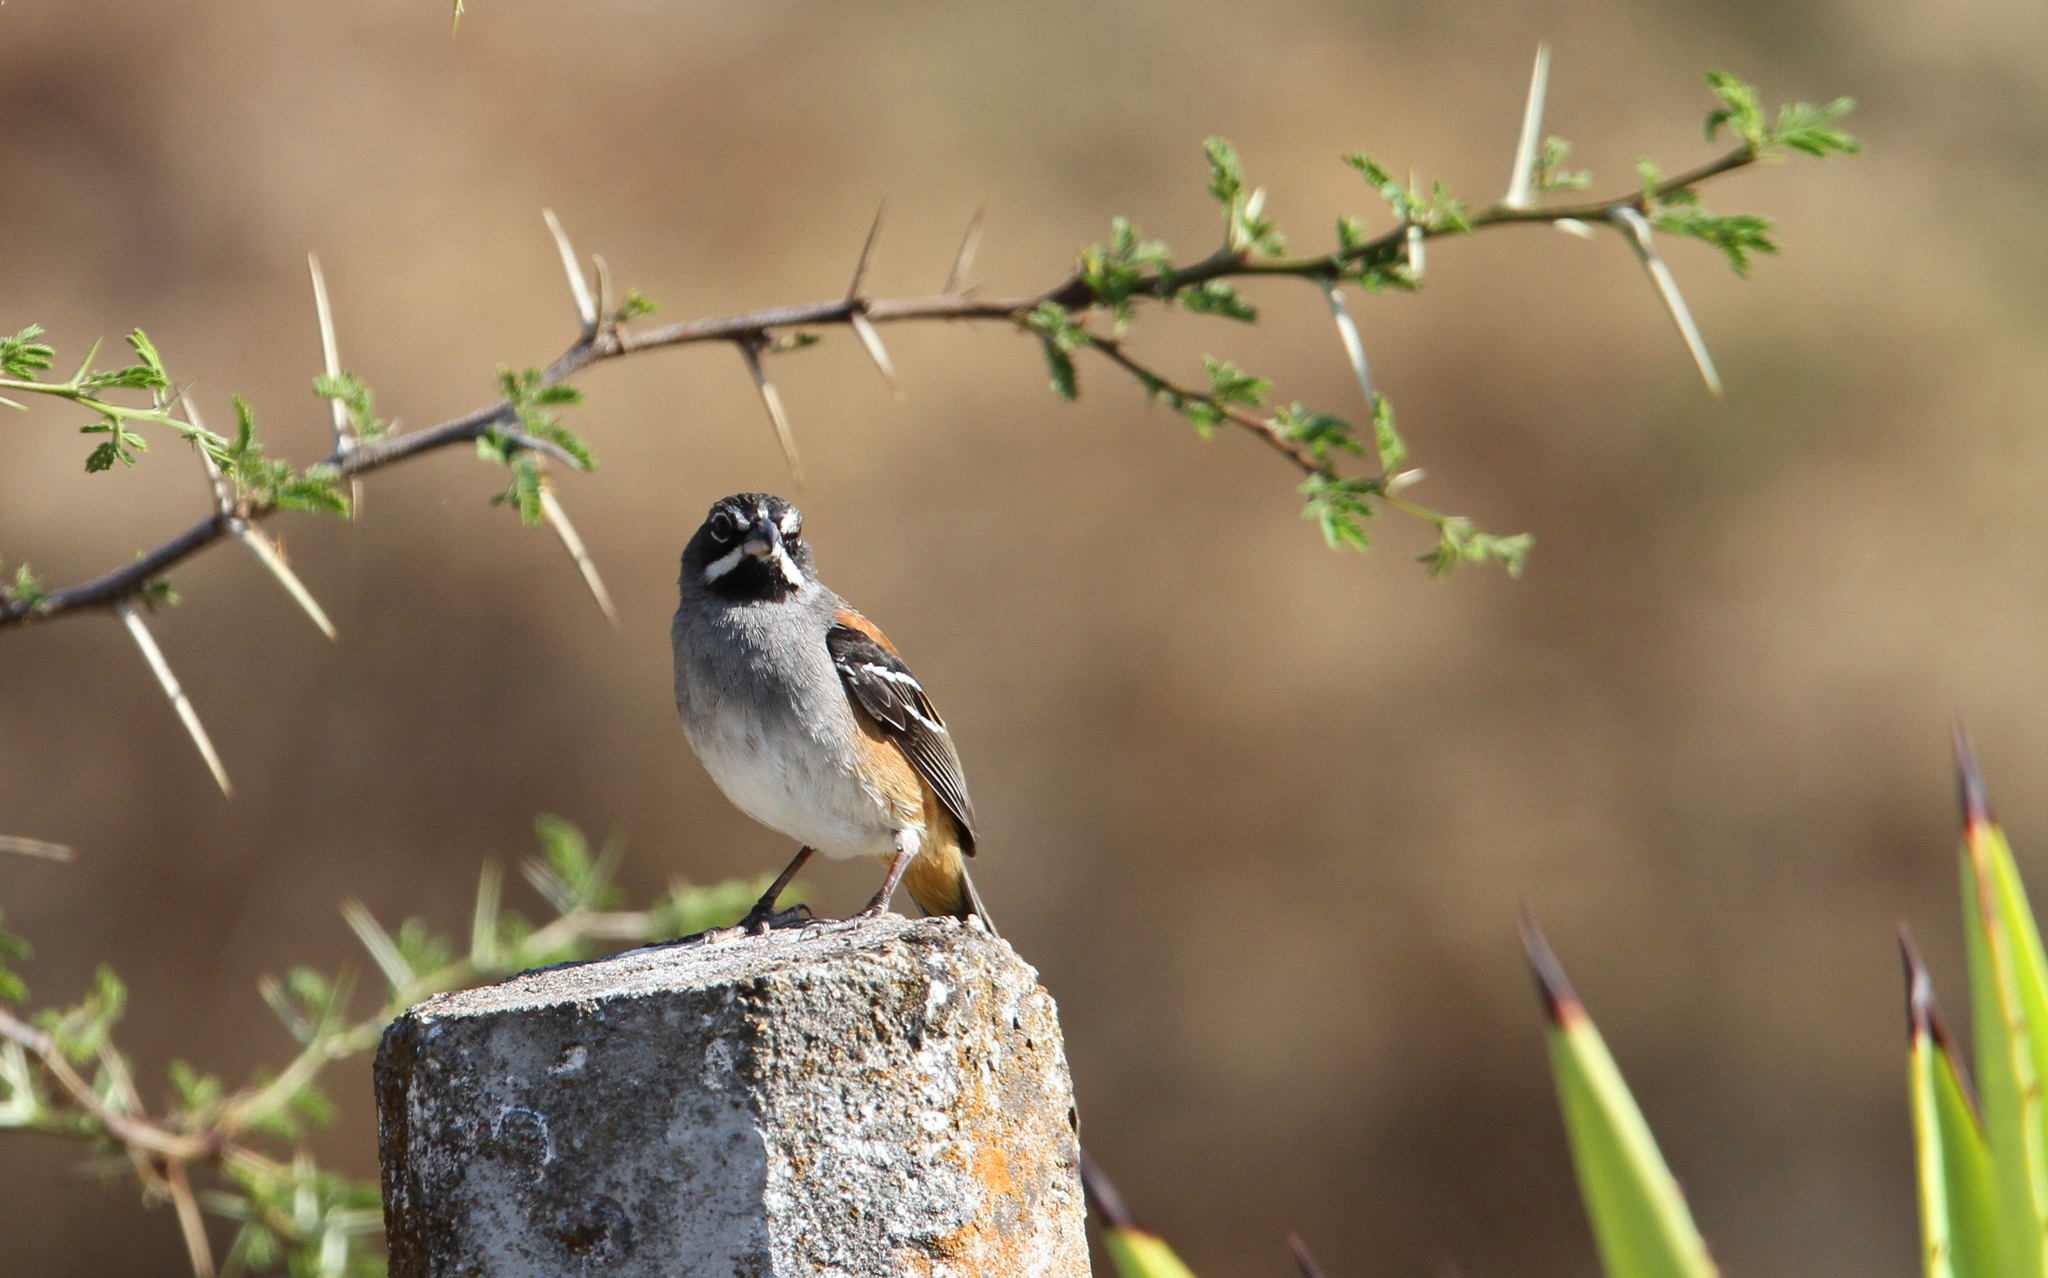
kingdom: Animalia
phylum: Chordata
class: Aves
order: Passeriformes
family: Passerellidae
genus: Peucaea
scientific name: Peucaea mystacalis
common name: Bridled sparrow
